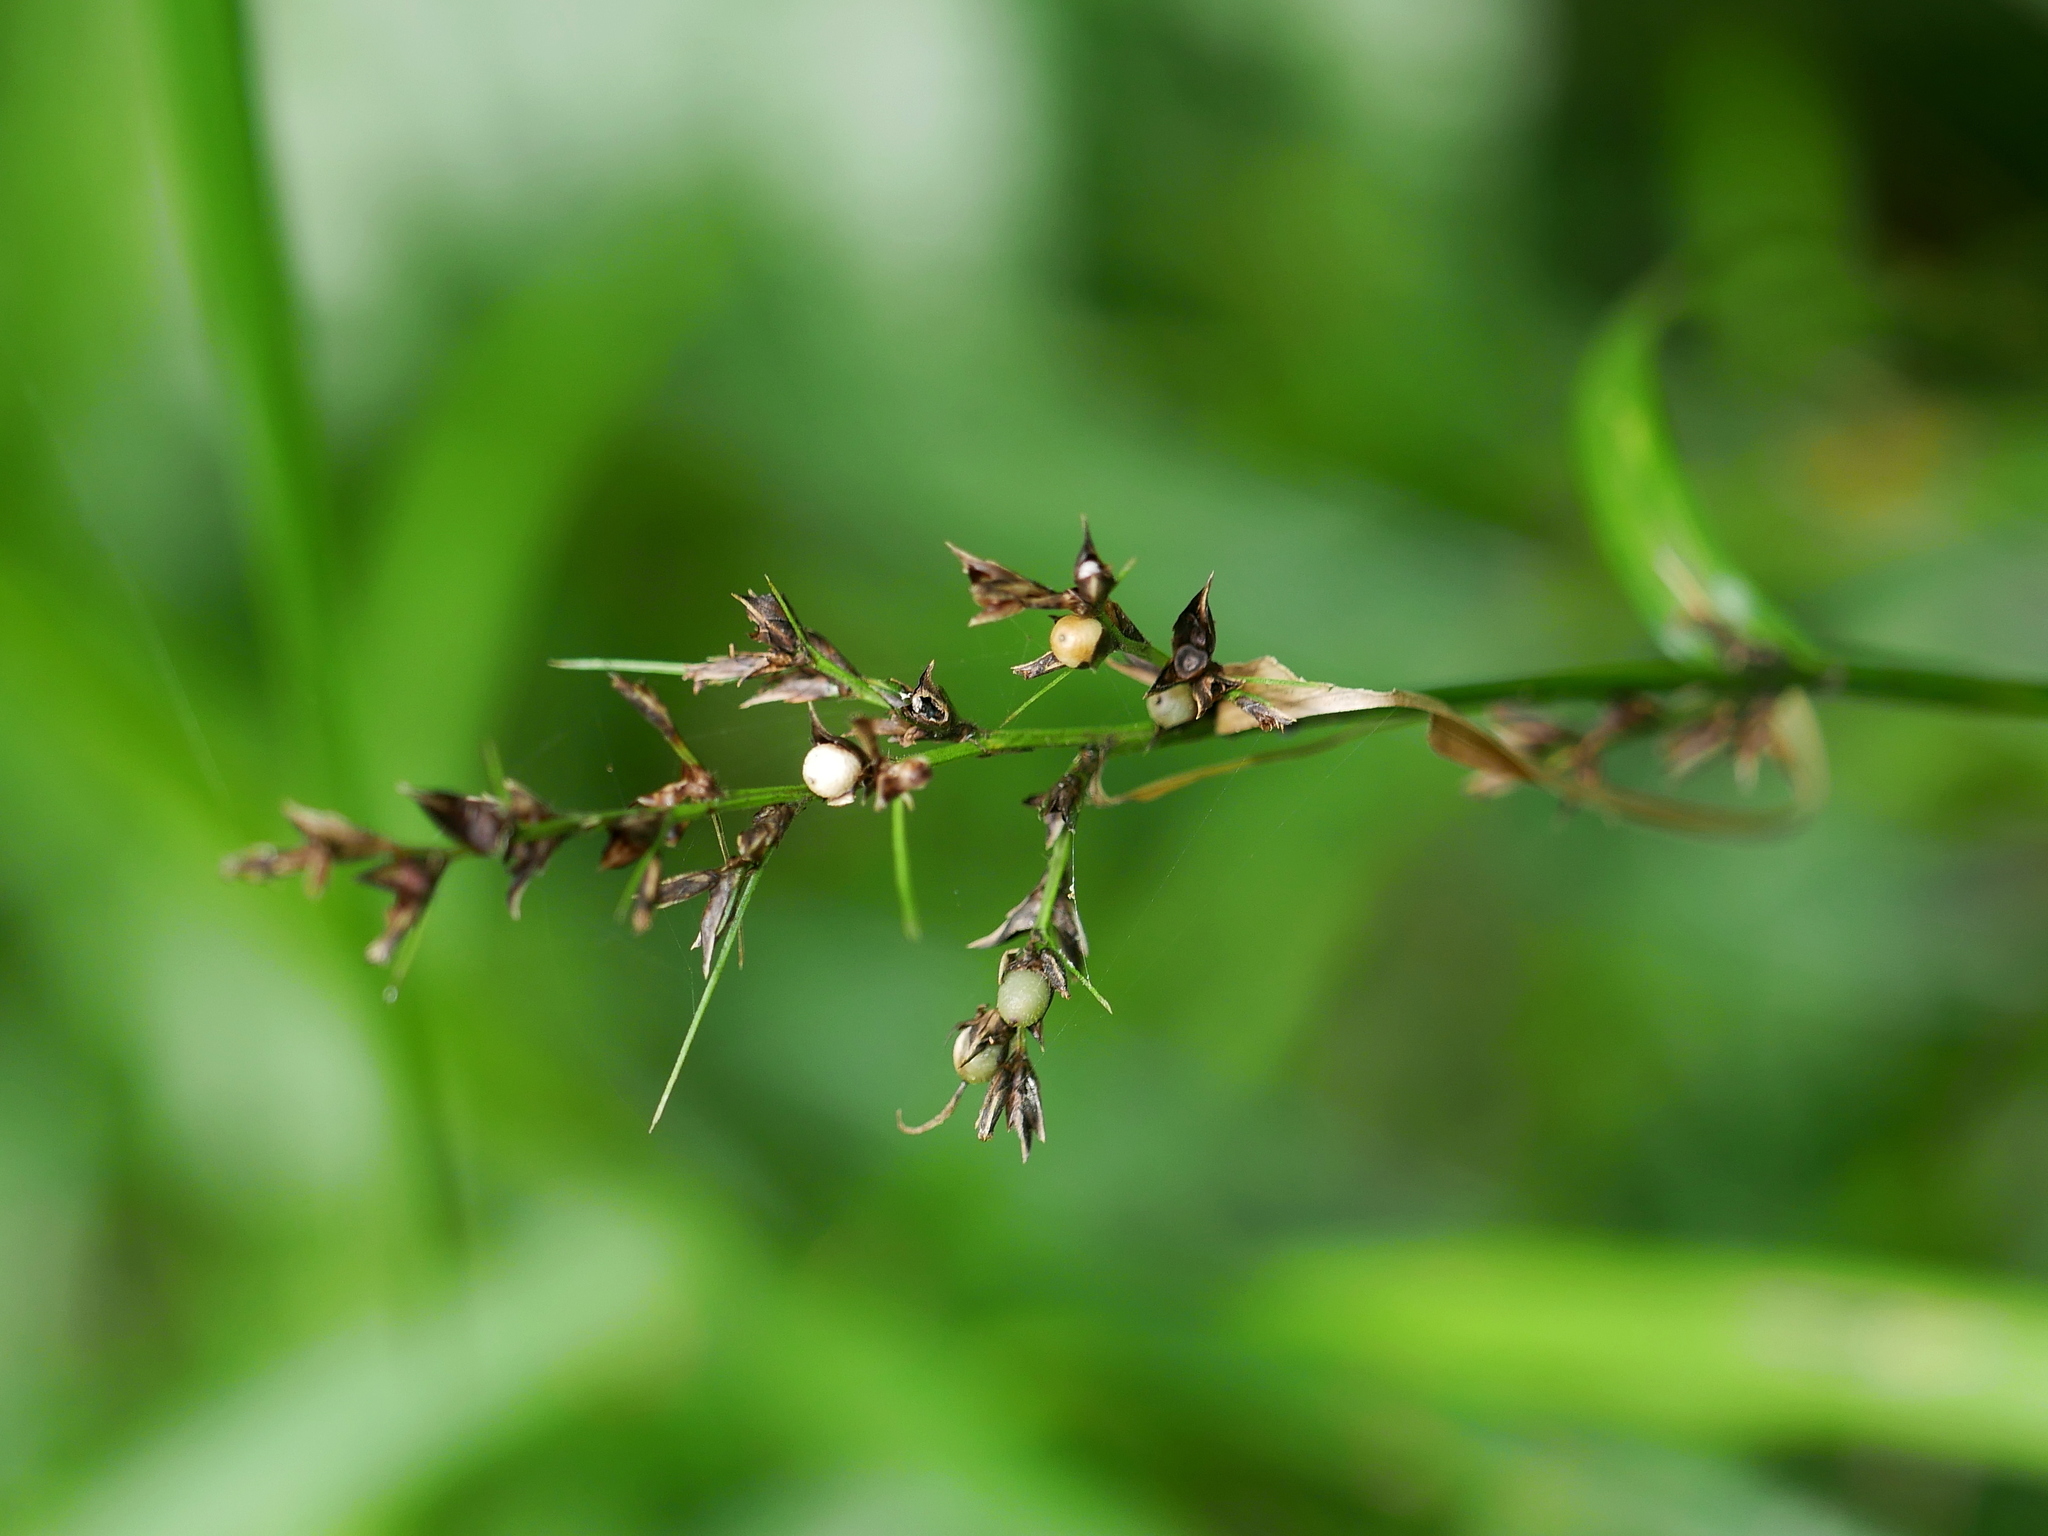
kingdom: Plantae
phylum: Tracheophyta
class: Liliopsida
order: Poales
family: Cyperaceae
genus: Scleria
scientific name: Scleria terrestris
